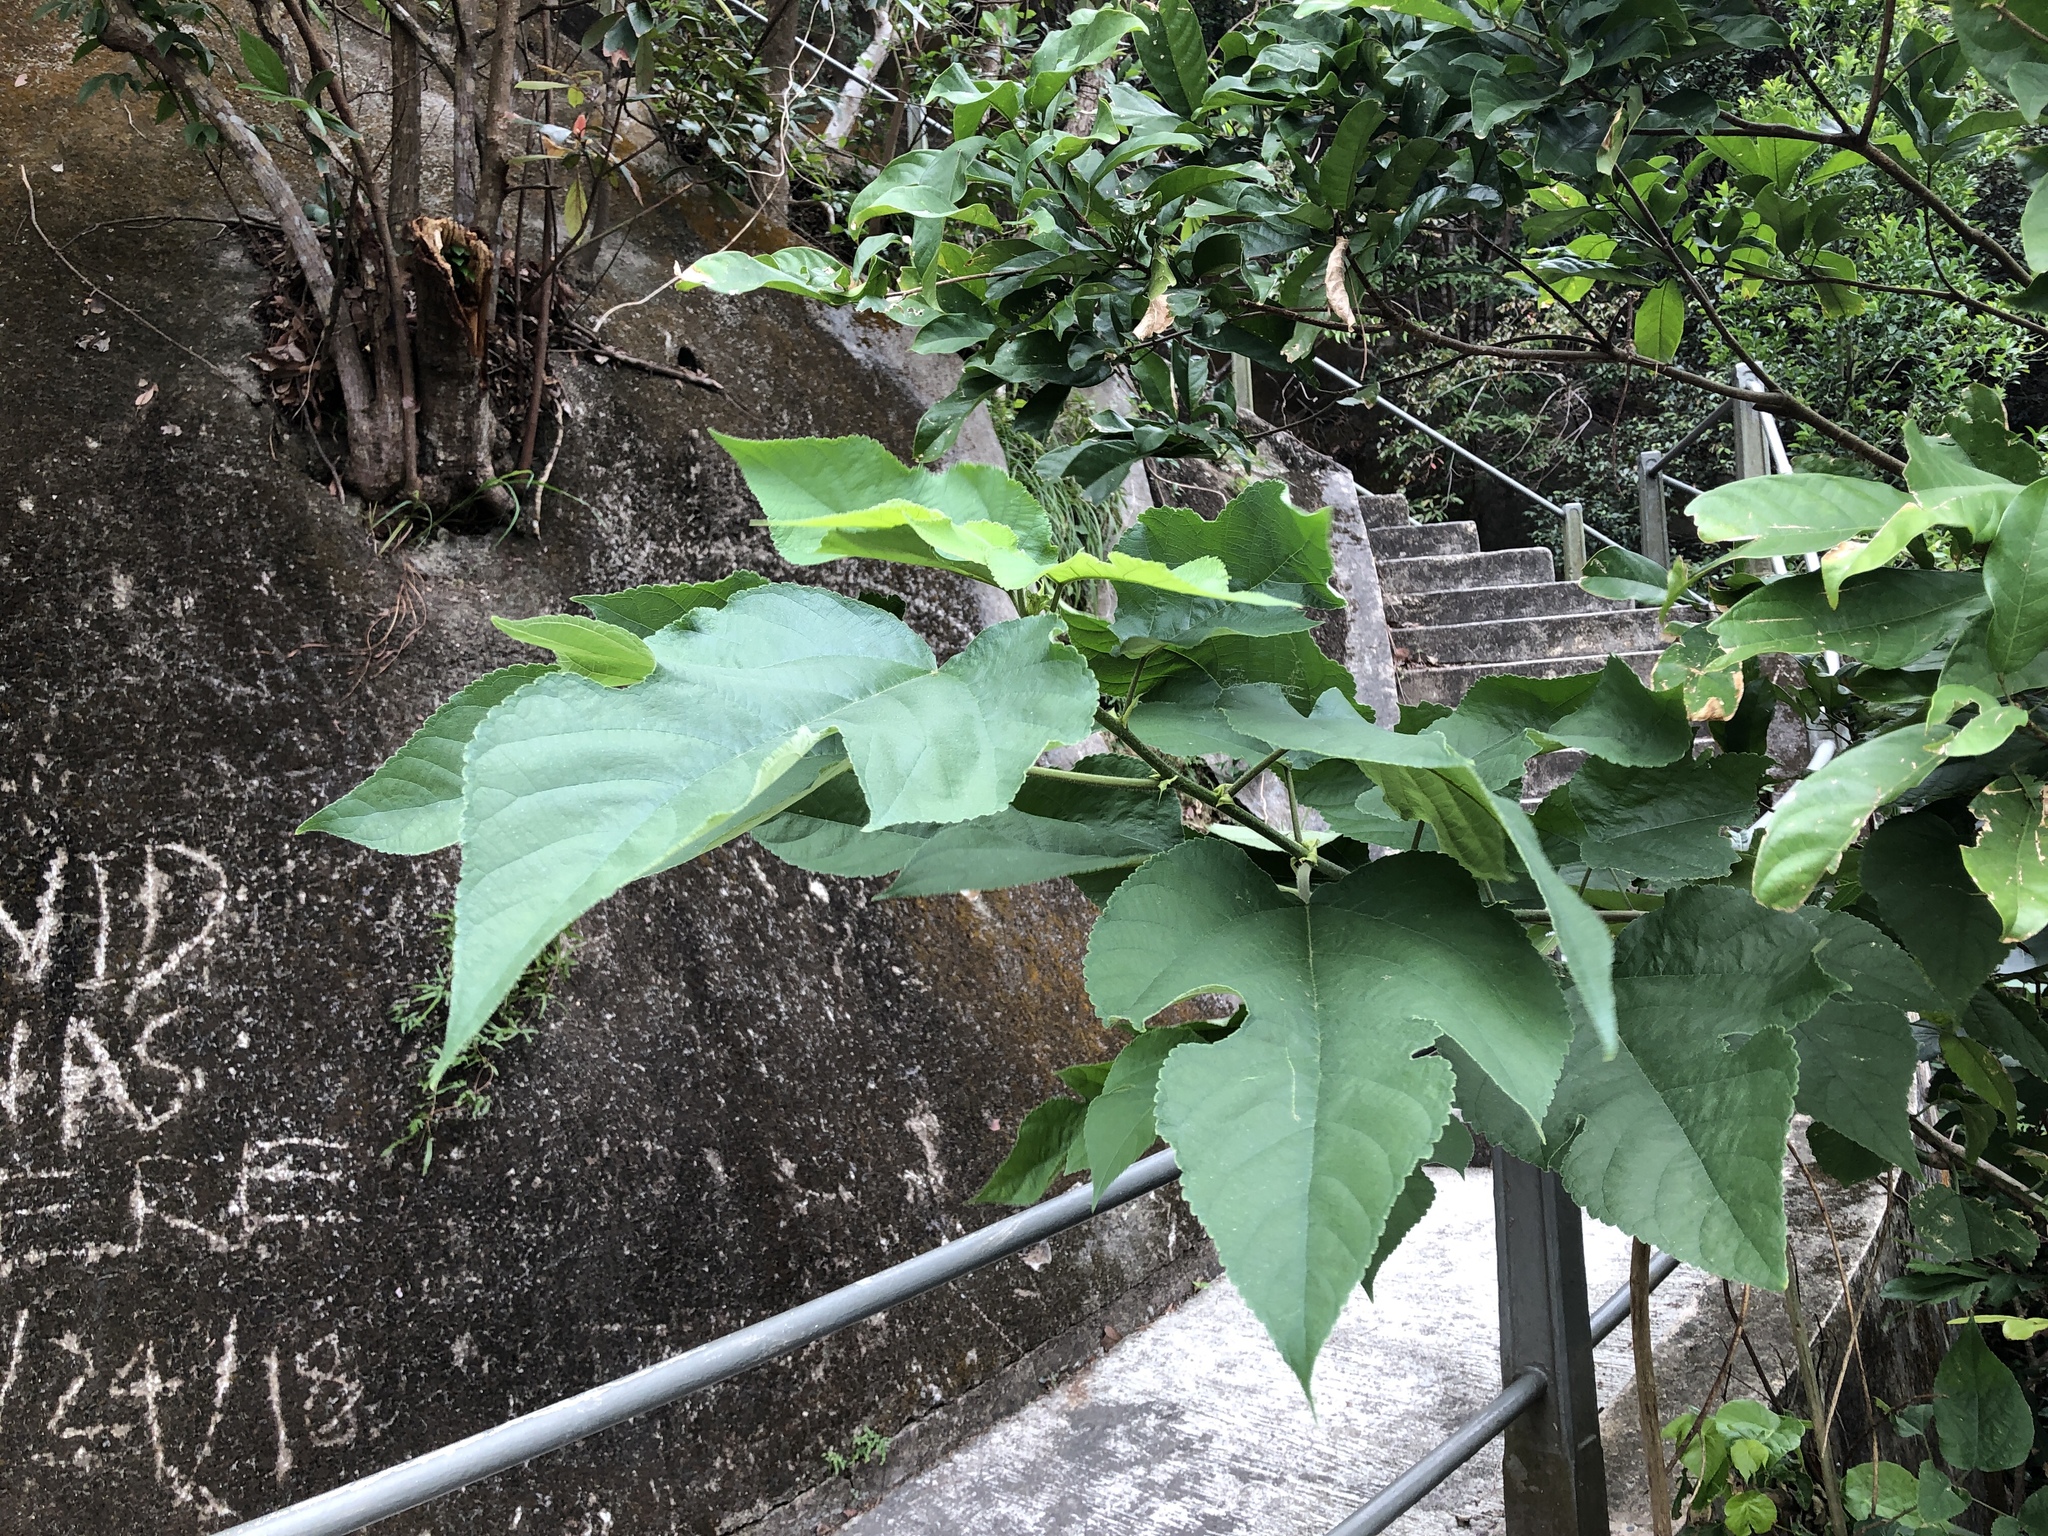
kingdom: Plantae
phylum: Tracheophyta
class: Magnoliopsida
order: Rosales
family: Moraceae
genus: Broussonetia
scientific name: Broussonetia papyrifera
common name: Paper mulberry
